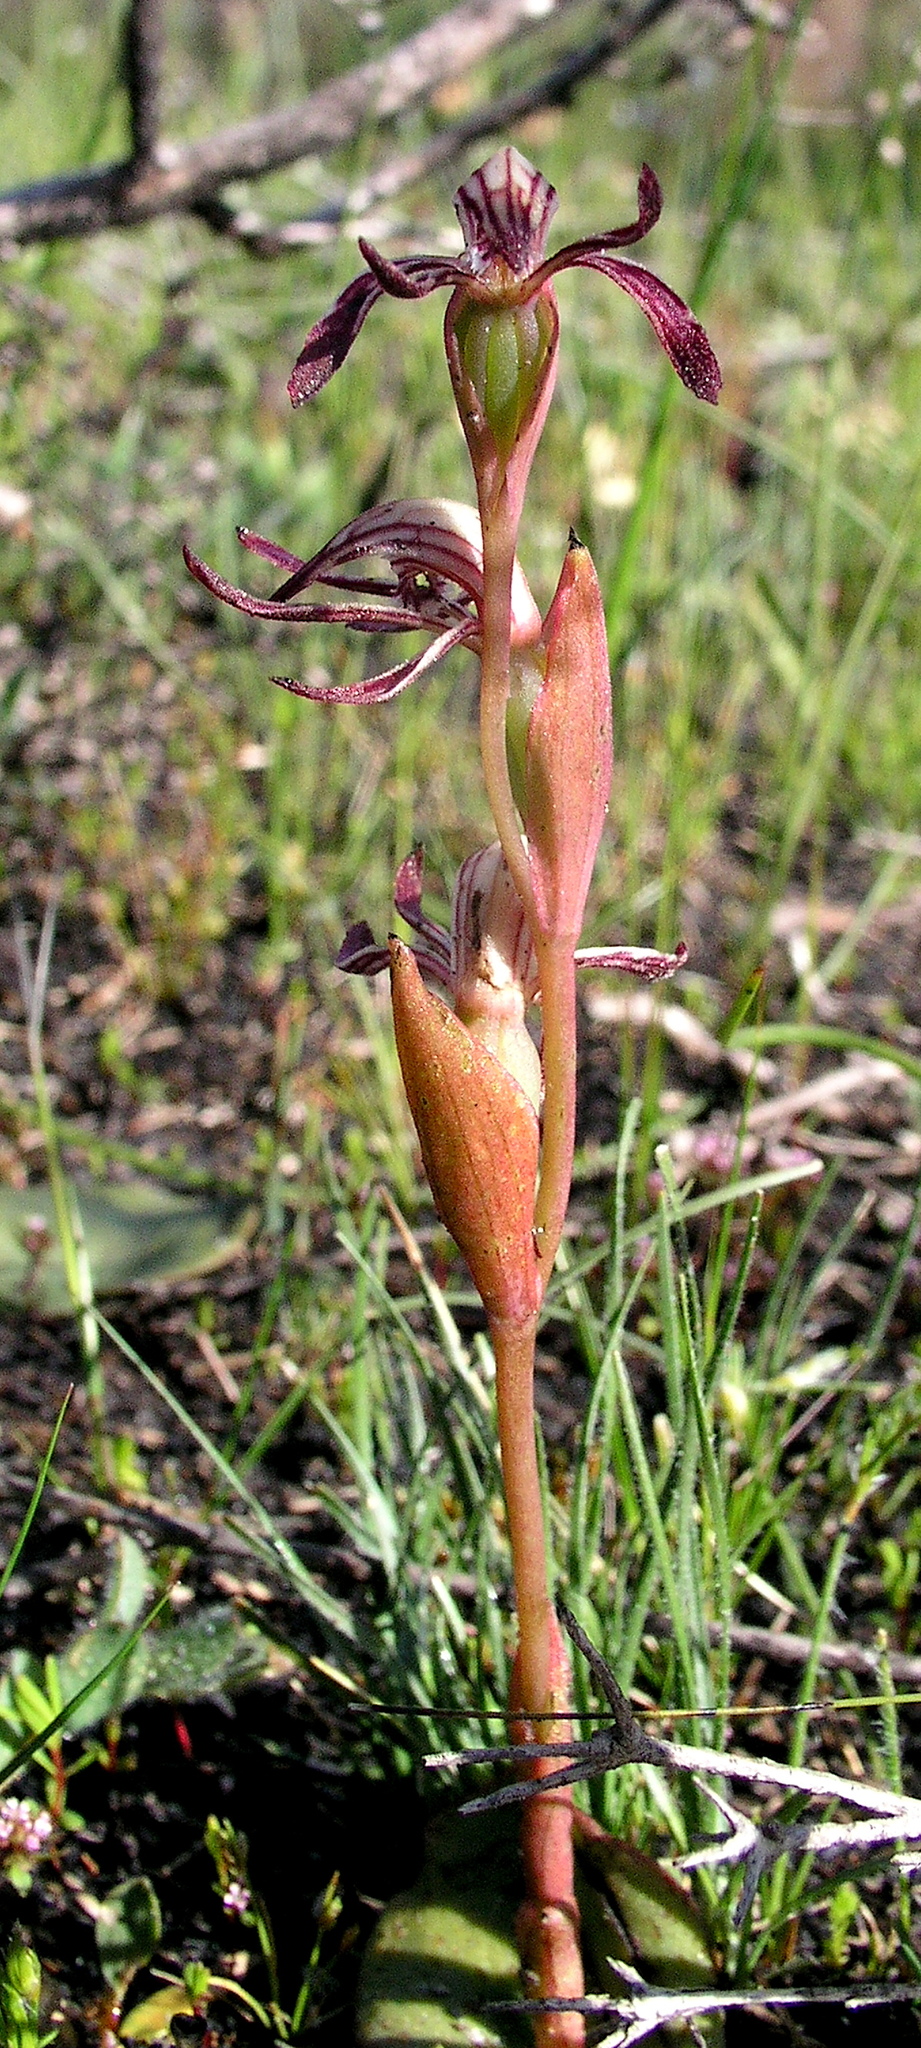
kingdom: Plantae
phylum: Tracheophyta
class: Liliopsida
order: Asparagales
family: Orchidaceae
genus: Pyrorchis
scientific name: Pyrorchis nigricans
